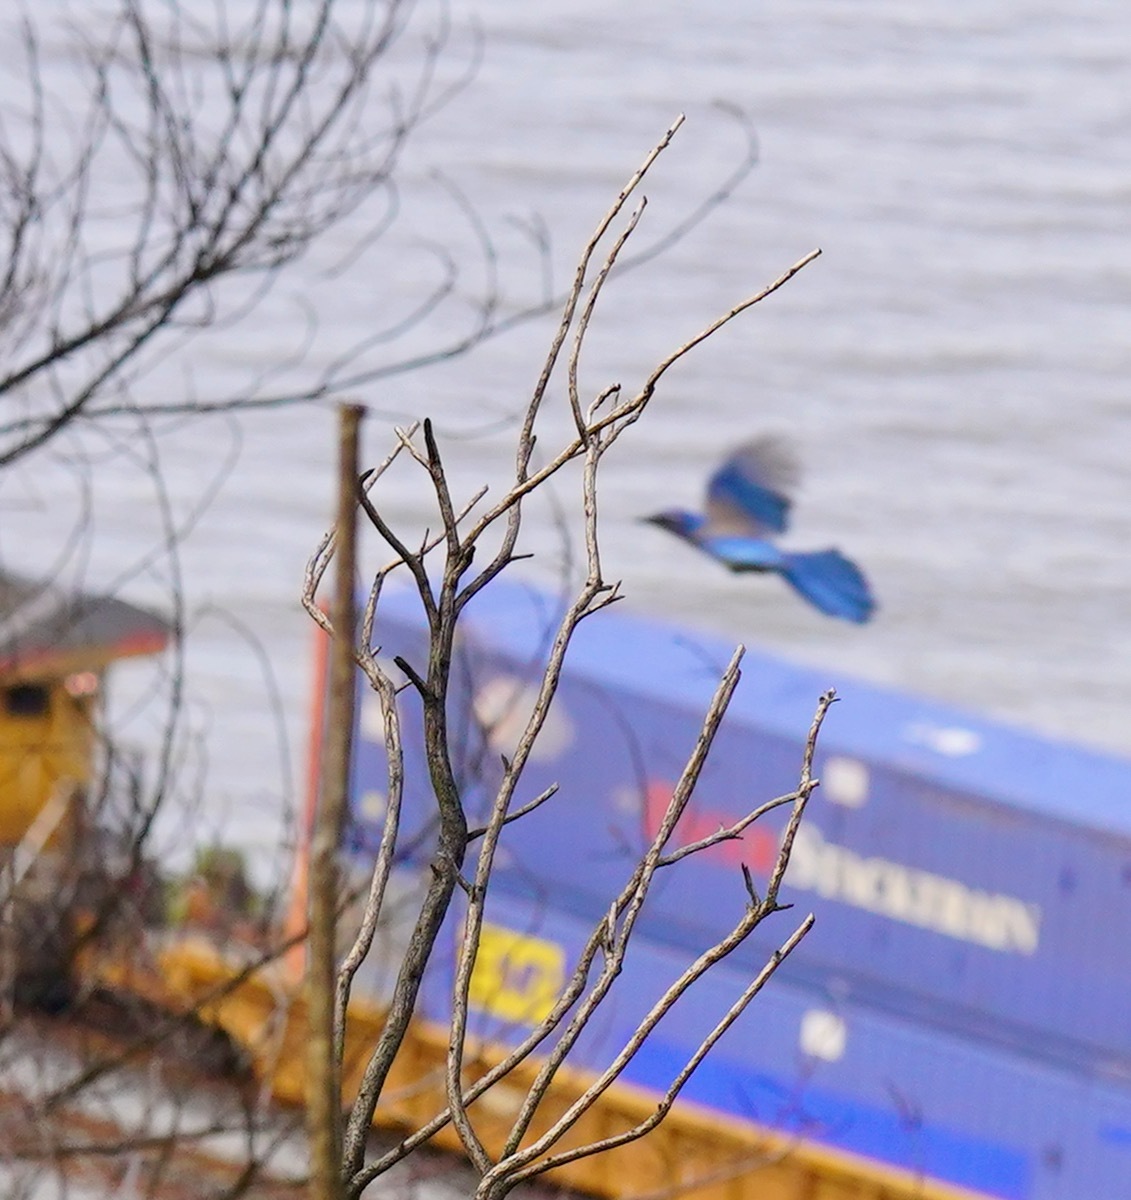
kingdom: Animalia
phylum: Chordata
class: Aves
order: Passeriformes
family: Corvidae
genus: Aphelocoma
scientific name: Aphelocoma californica
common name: California scrub-jay
